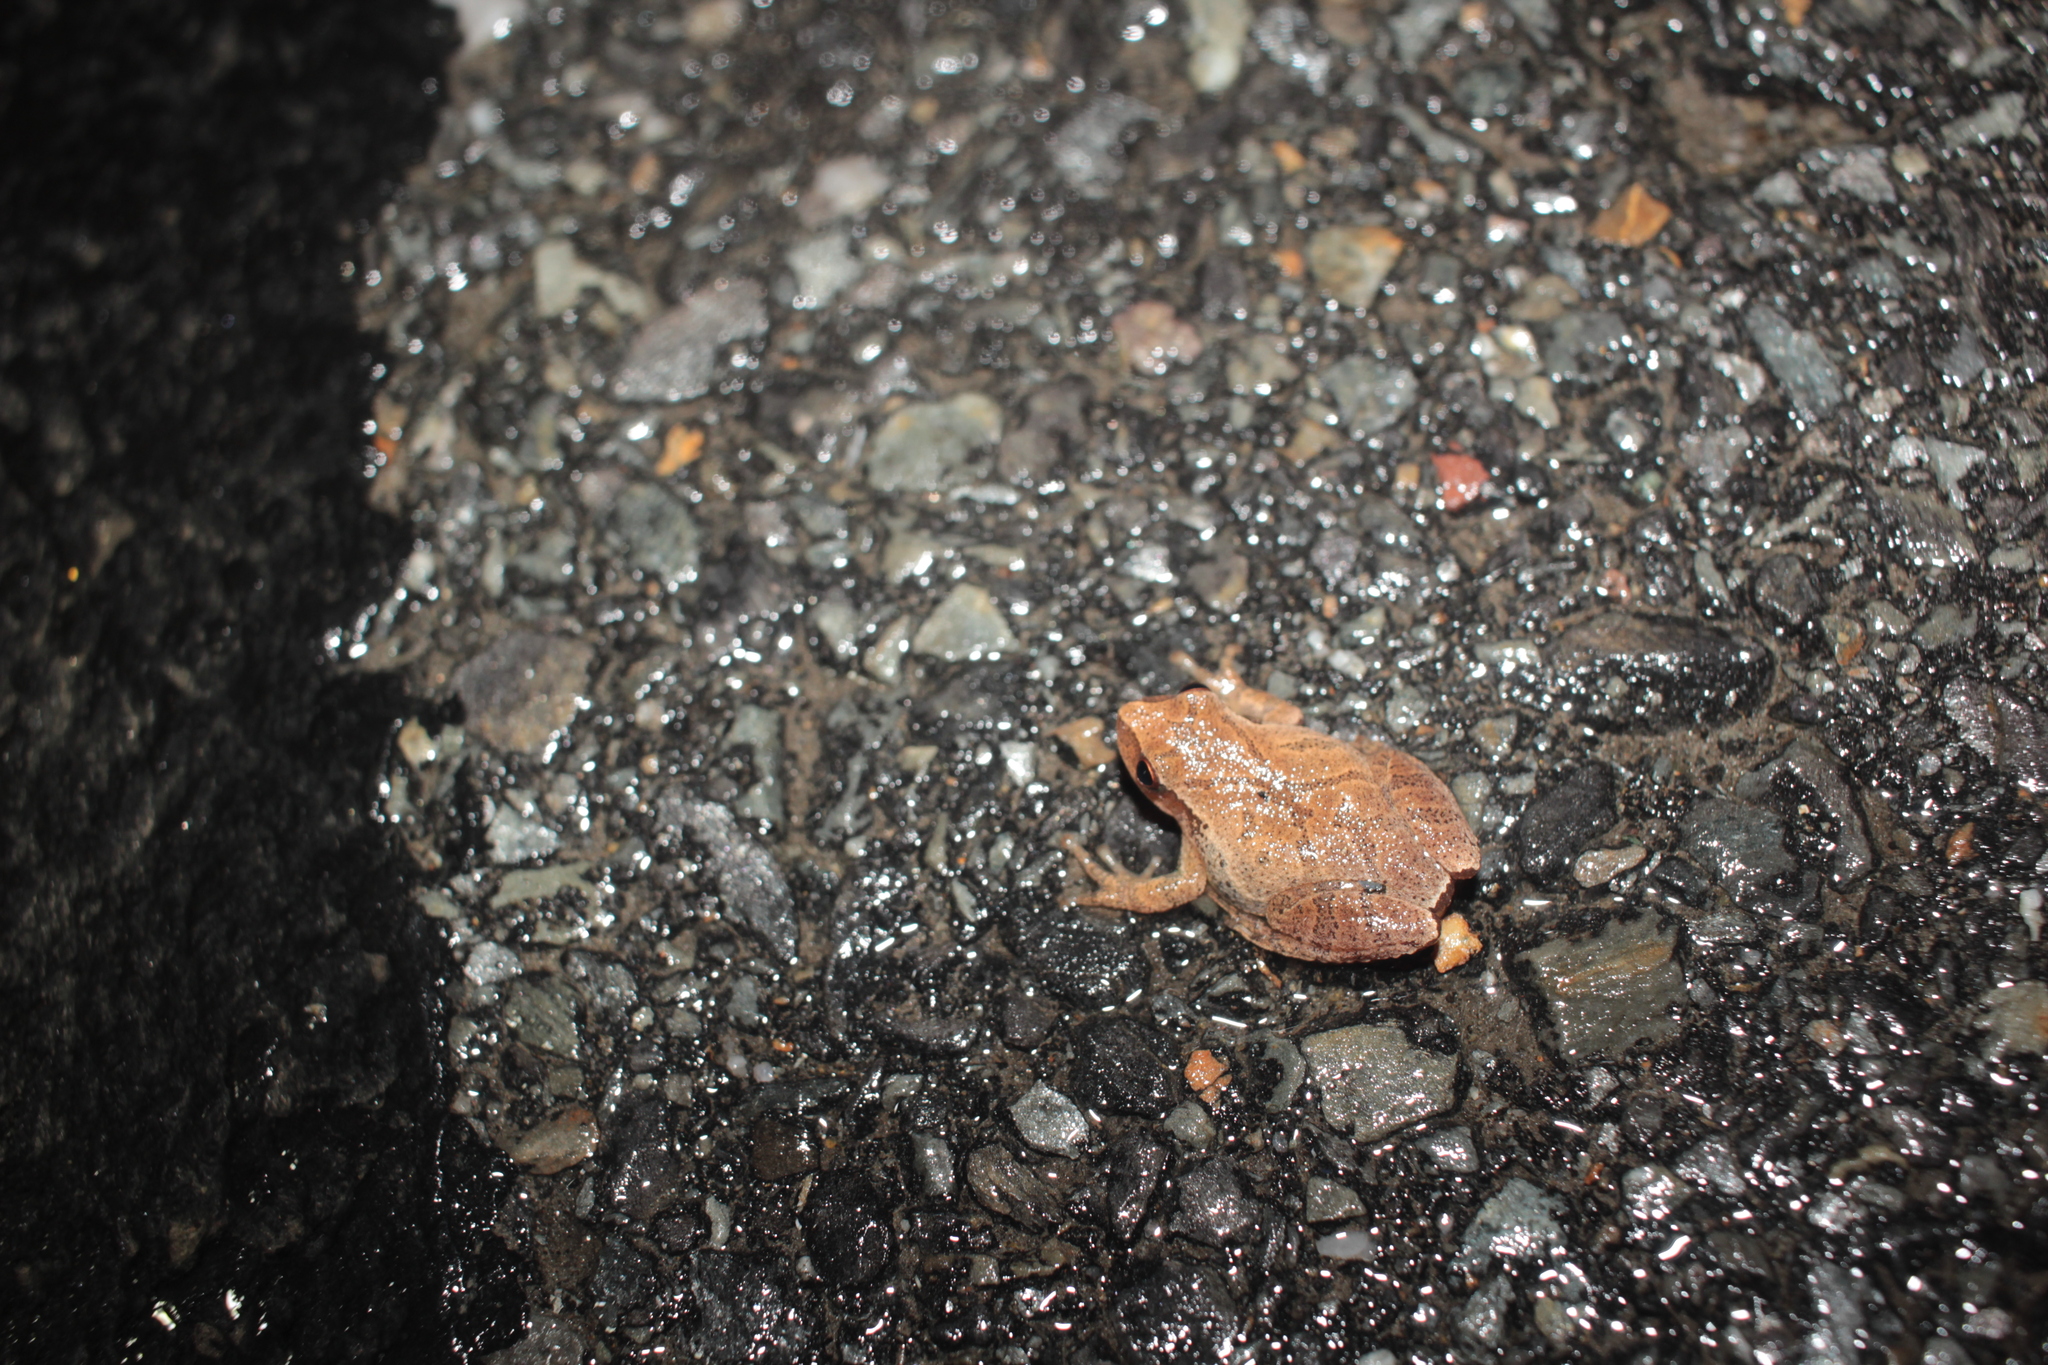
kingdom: Animalia
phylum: Chordata
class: Amphibia
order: Anura
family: Hylidae
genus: Pseudacris
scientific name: Pseudacris crucifer
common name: Spring peeper
